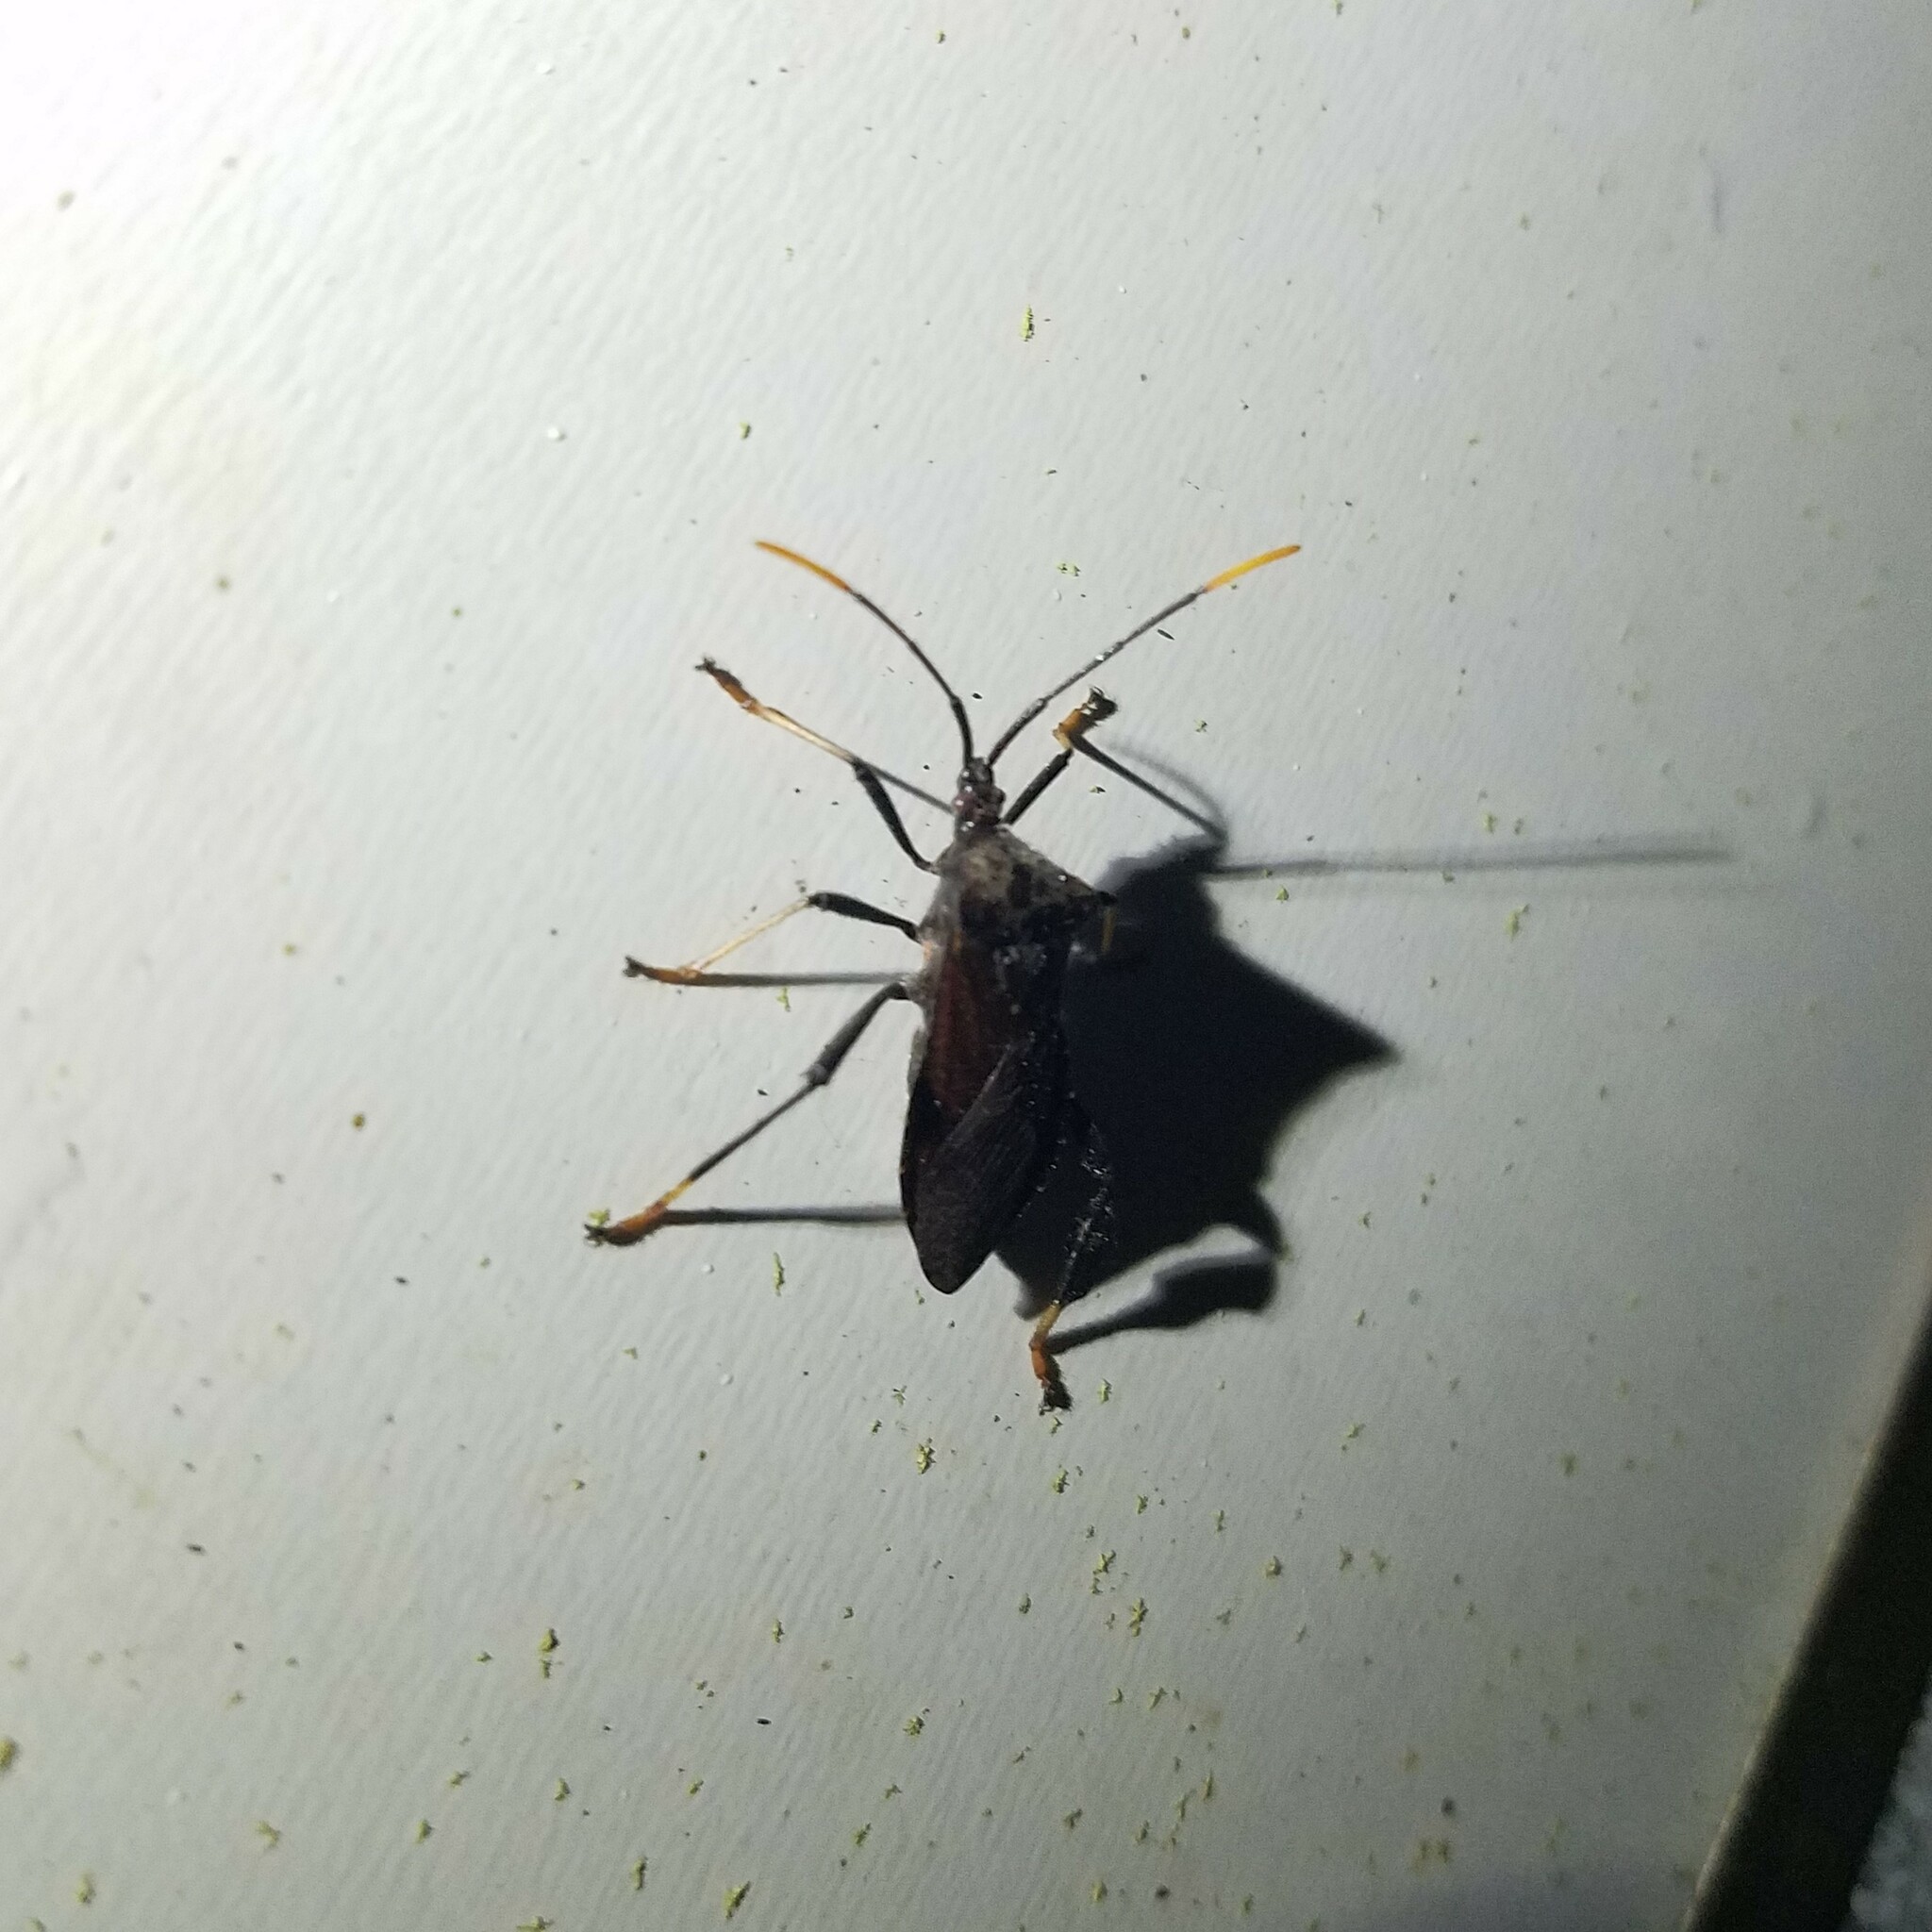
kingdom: Animalia
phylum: Arthropoda
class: Insecta
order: Hemiptera
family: Coreidae
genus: Acanthocephala
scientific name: Acanthocephala terminalis
